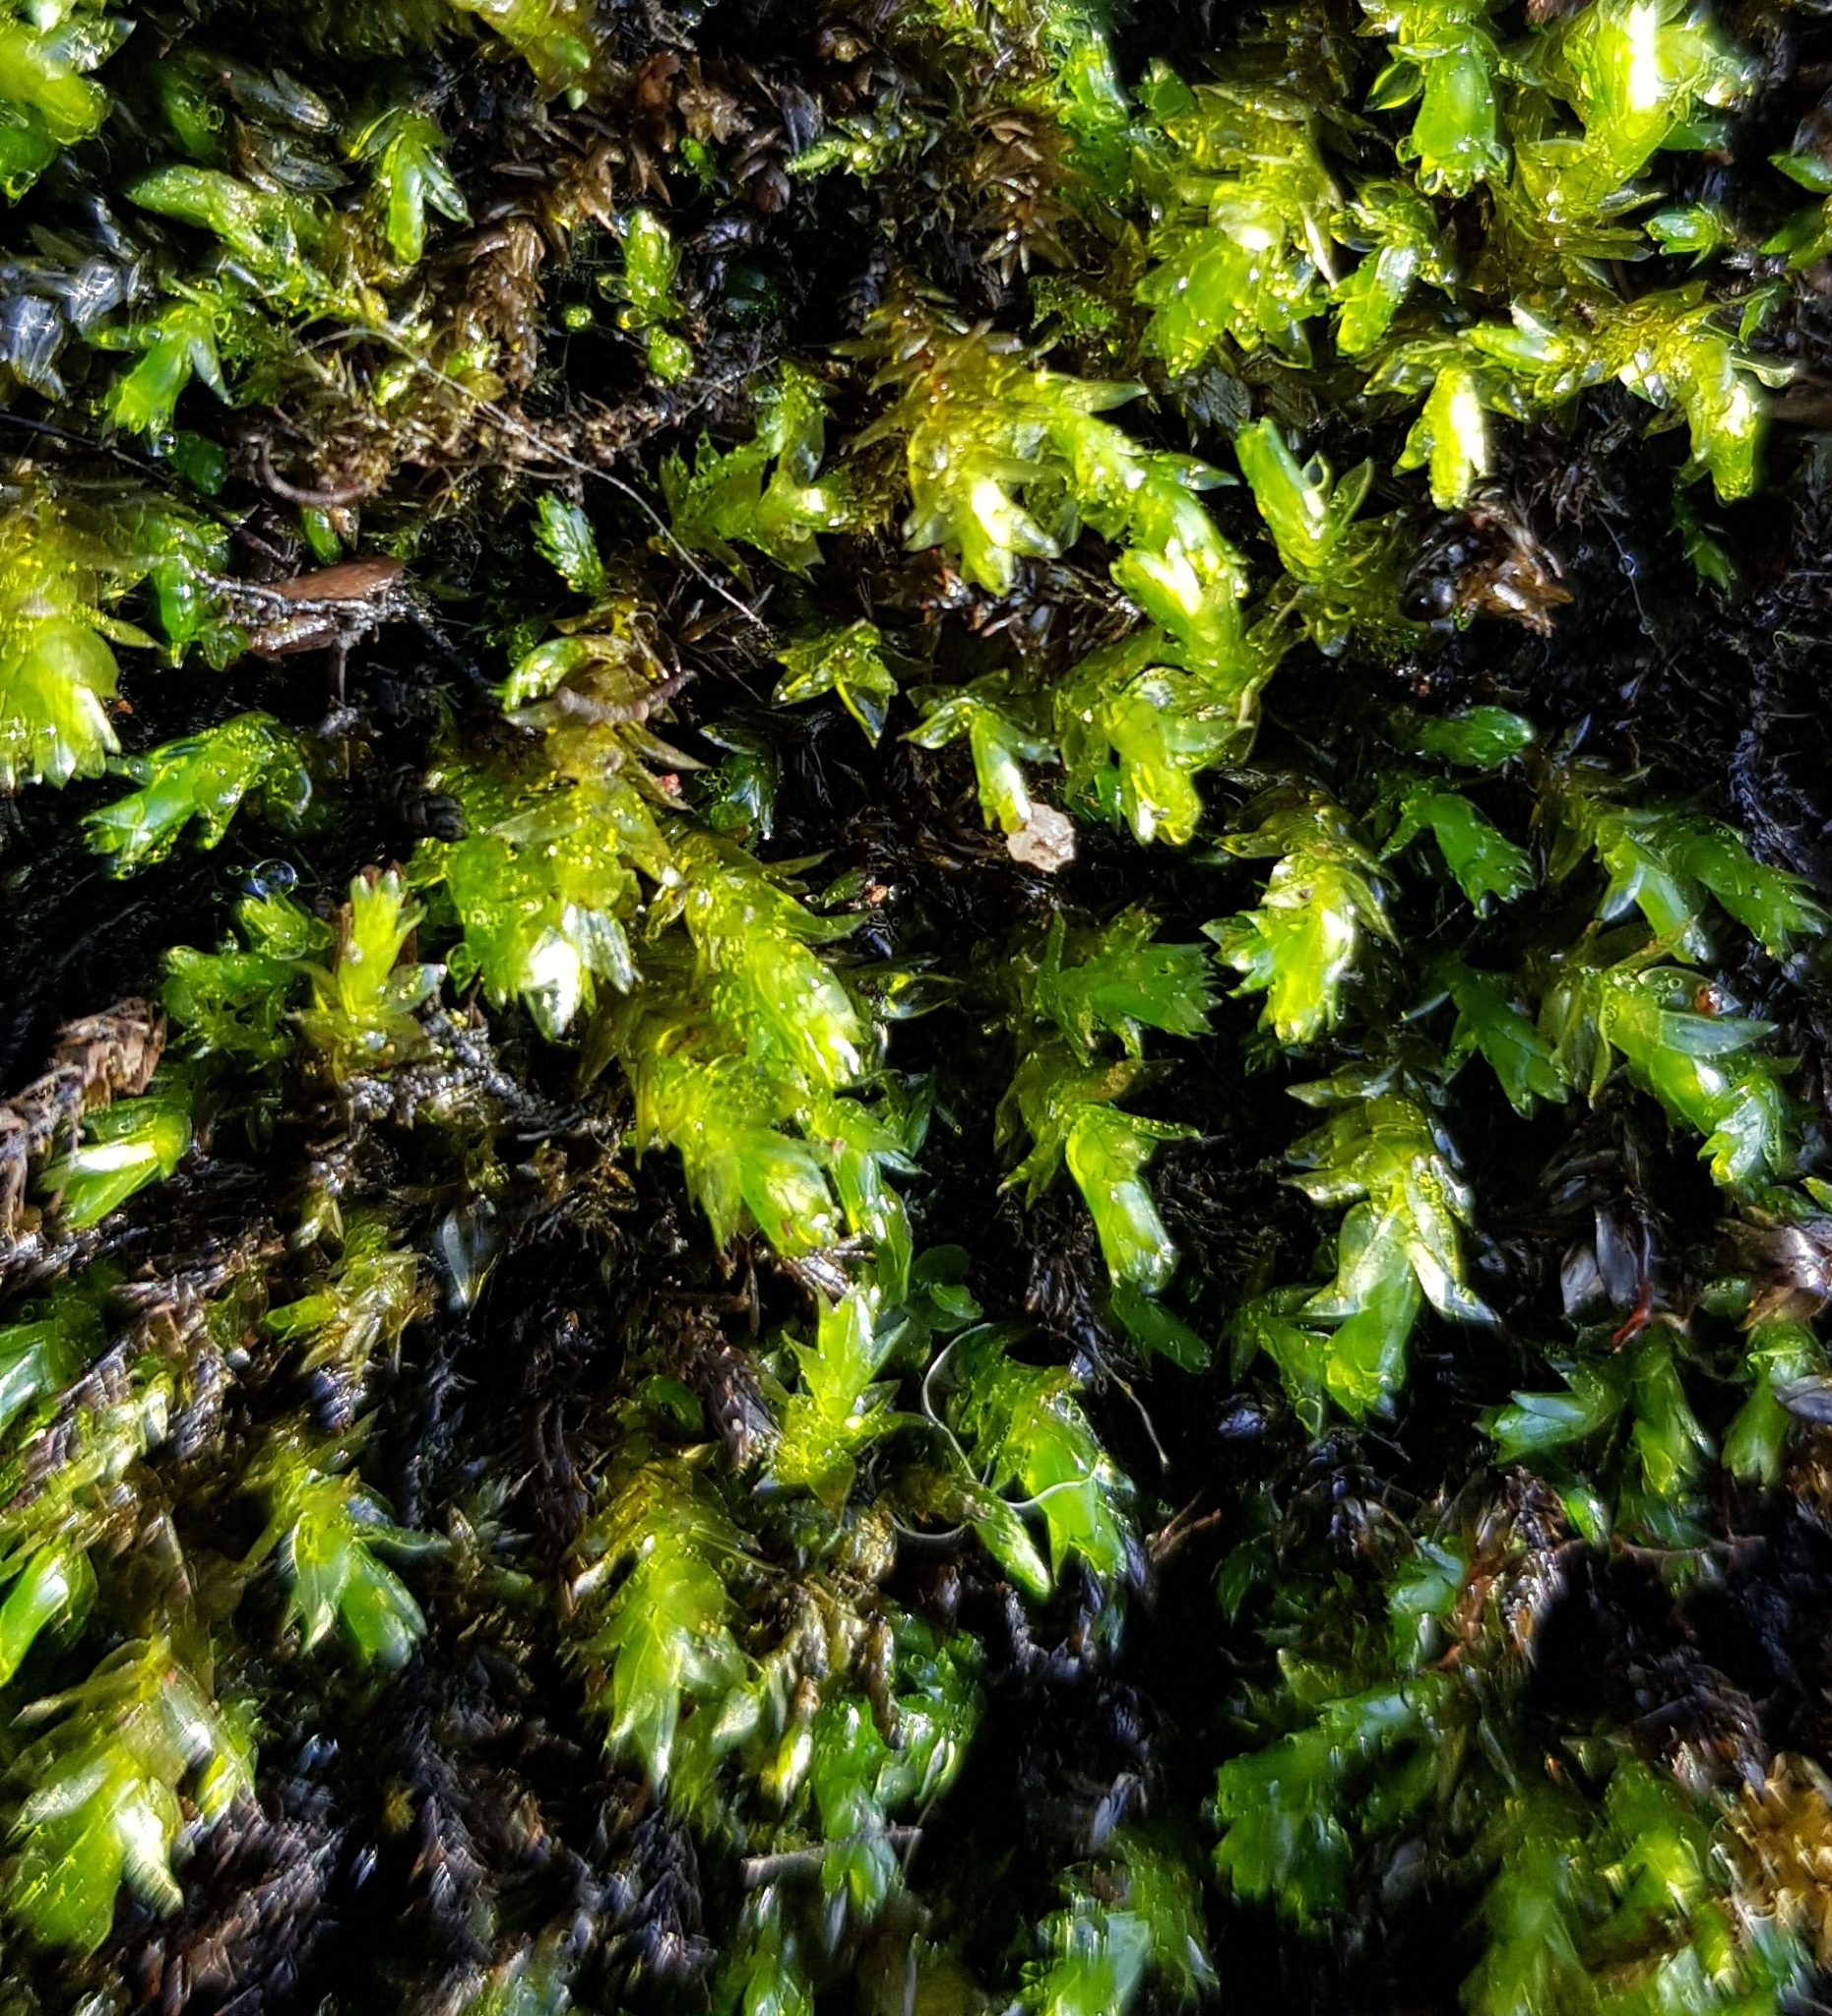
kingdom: Plantae
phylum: Bryophyta
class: Bryopsida
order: Hypnales
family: Brachytheciaceae
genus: Rhynchostegium
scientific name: Rhynchostegium riparioides
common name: Platyhypnidium moss
